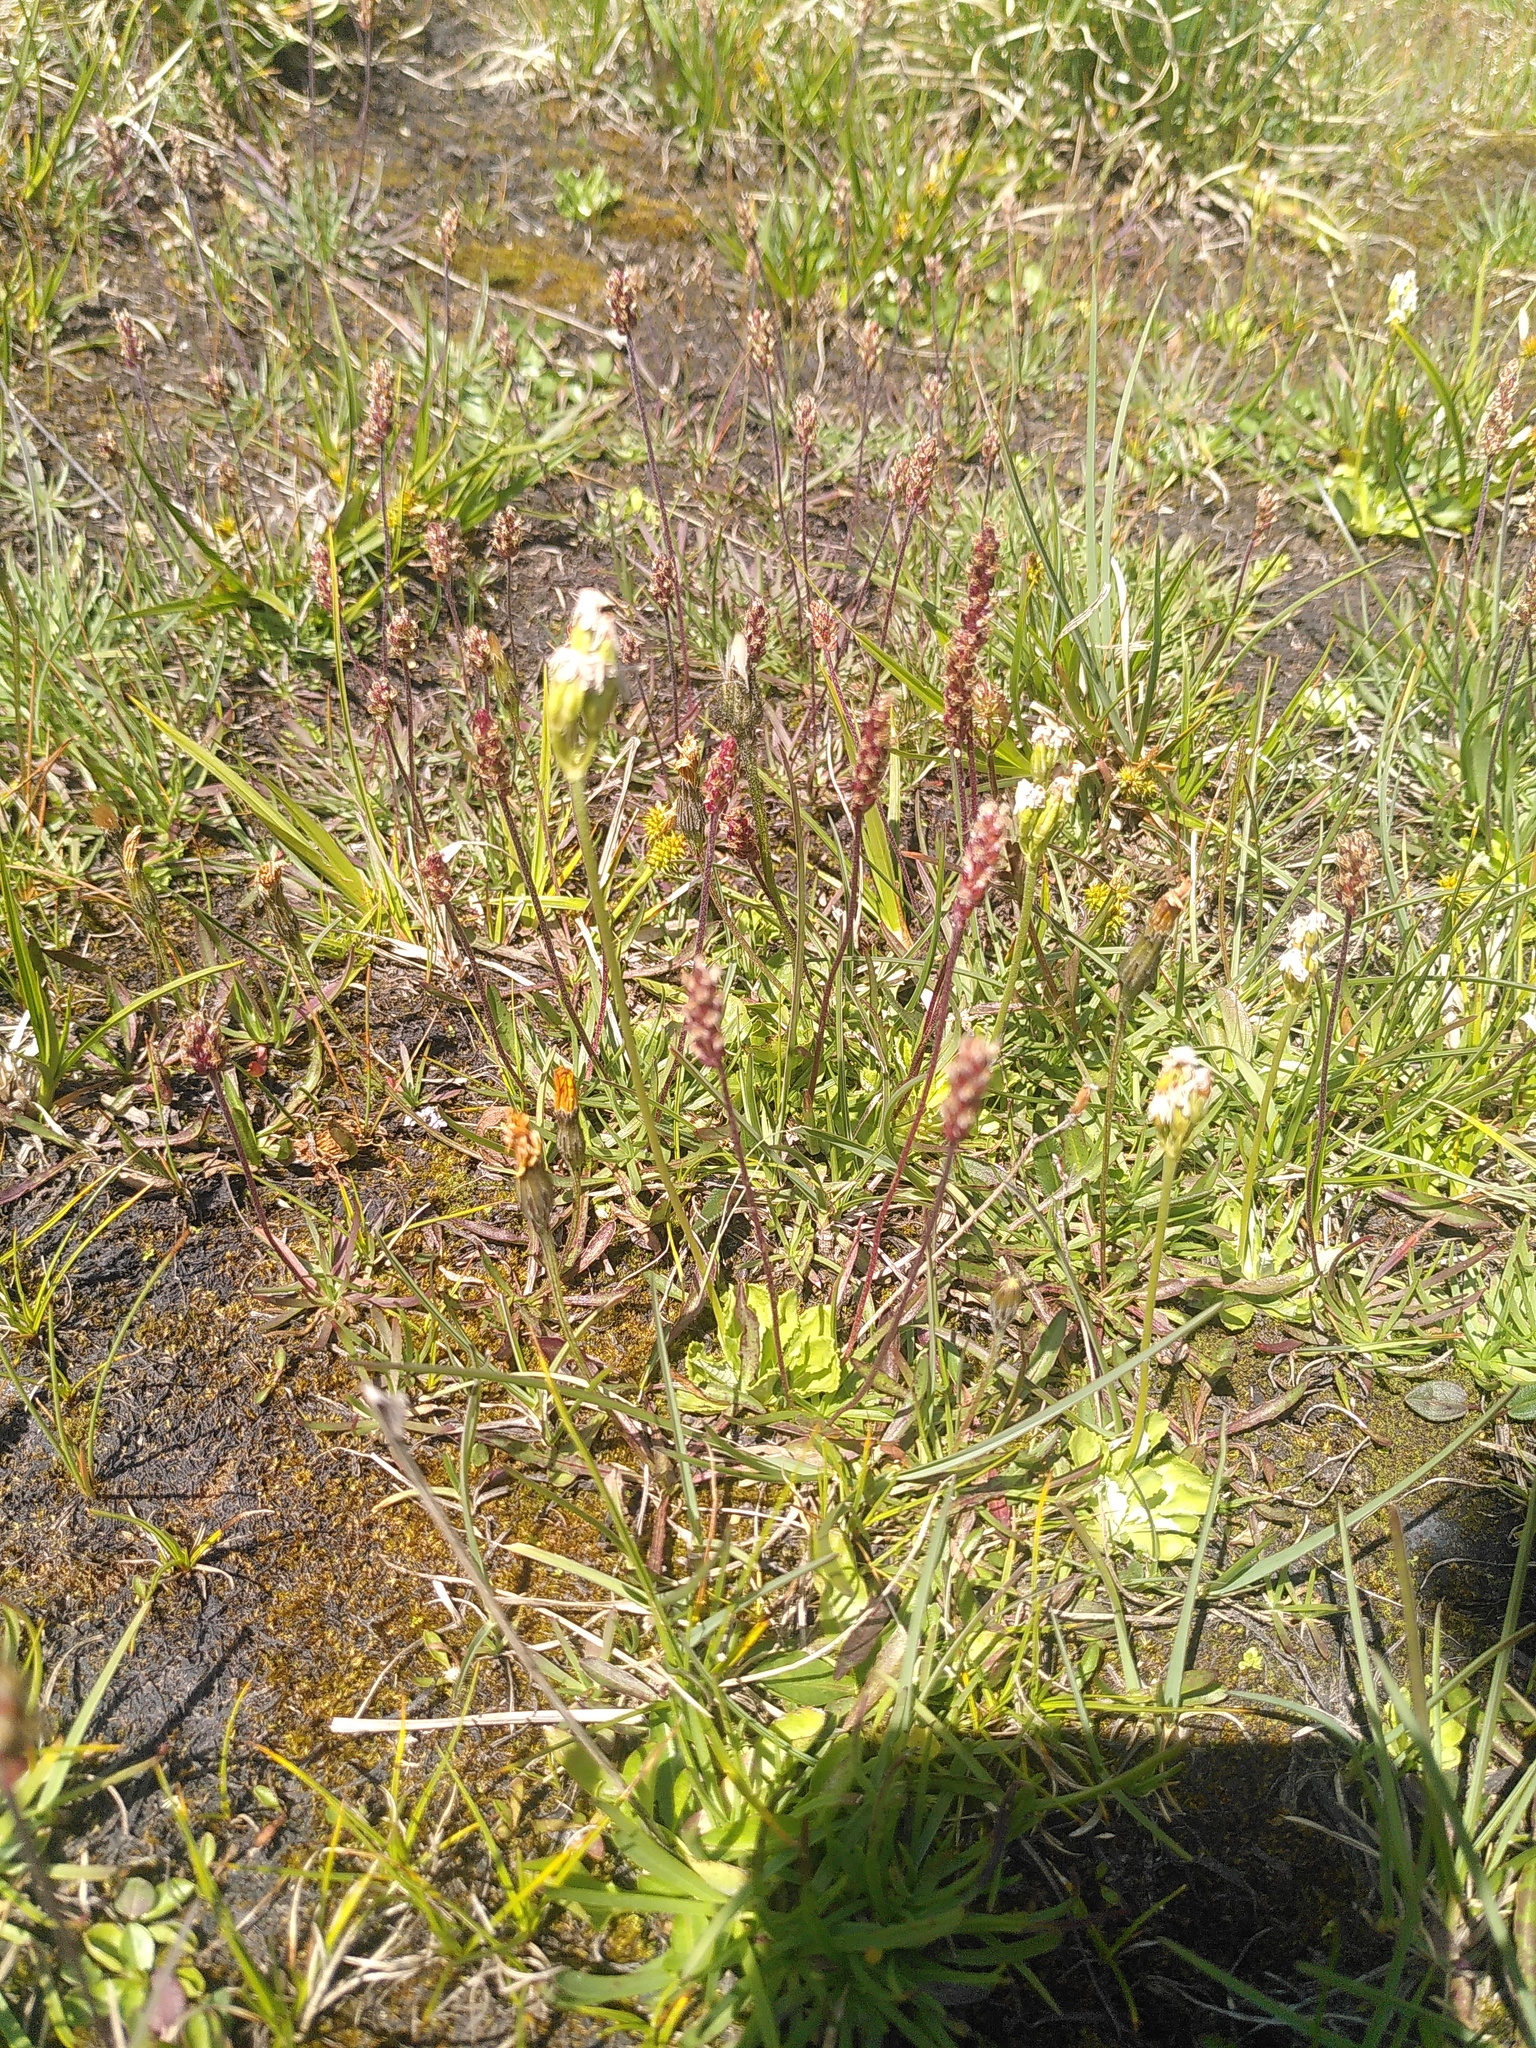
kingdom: Plantae
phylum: Tracheophyta
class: Magnoliopsida
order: Ericales
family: Primulaceae
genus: Primula
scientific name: Primula farinosa
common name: Bird's-eye primrose
